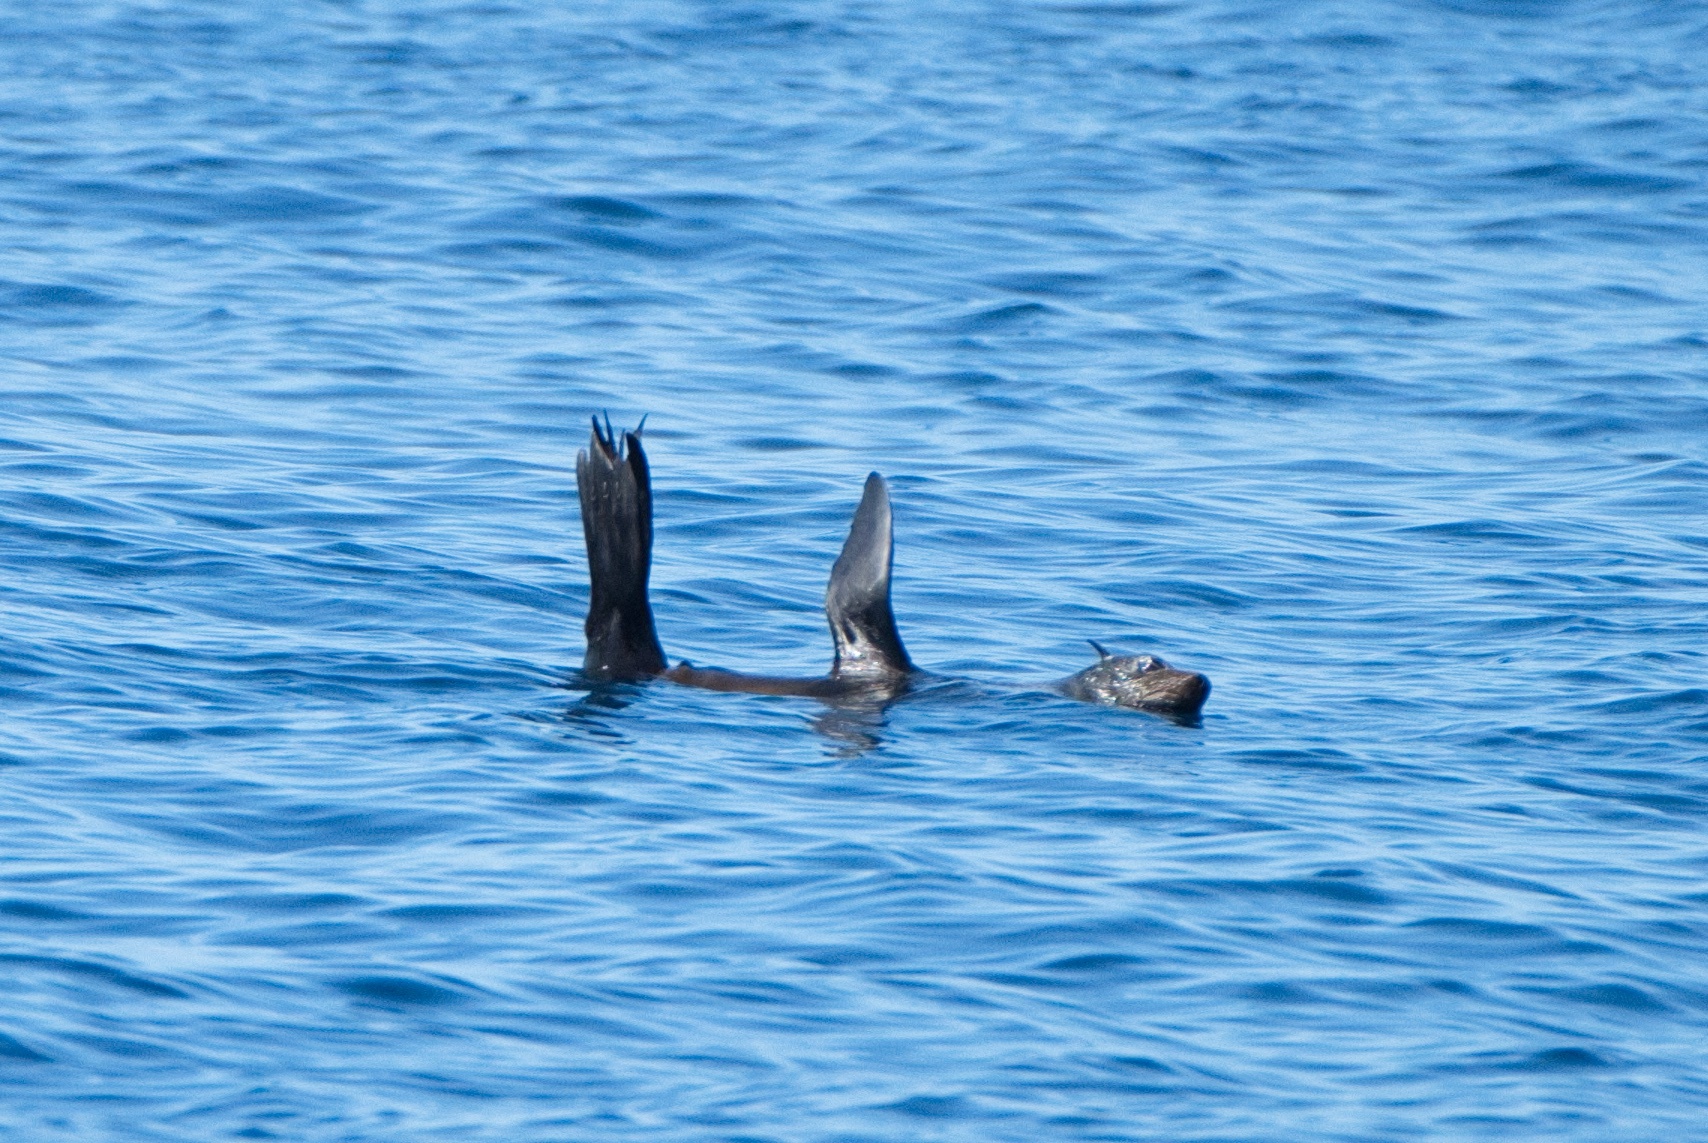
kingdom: Animalia
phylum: Chordata
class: Mammalia
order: Carnivora
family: Otariidae
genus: Arctocephalus
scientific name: Arctocephalus philippii
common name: Juan fernández fur seal
